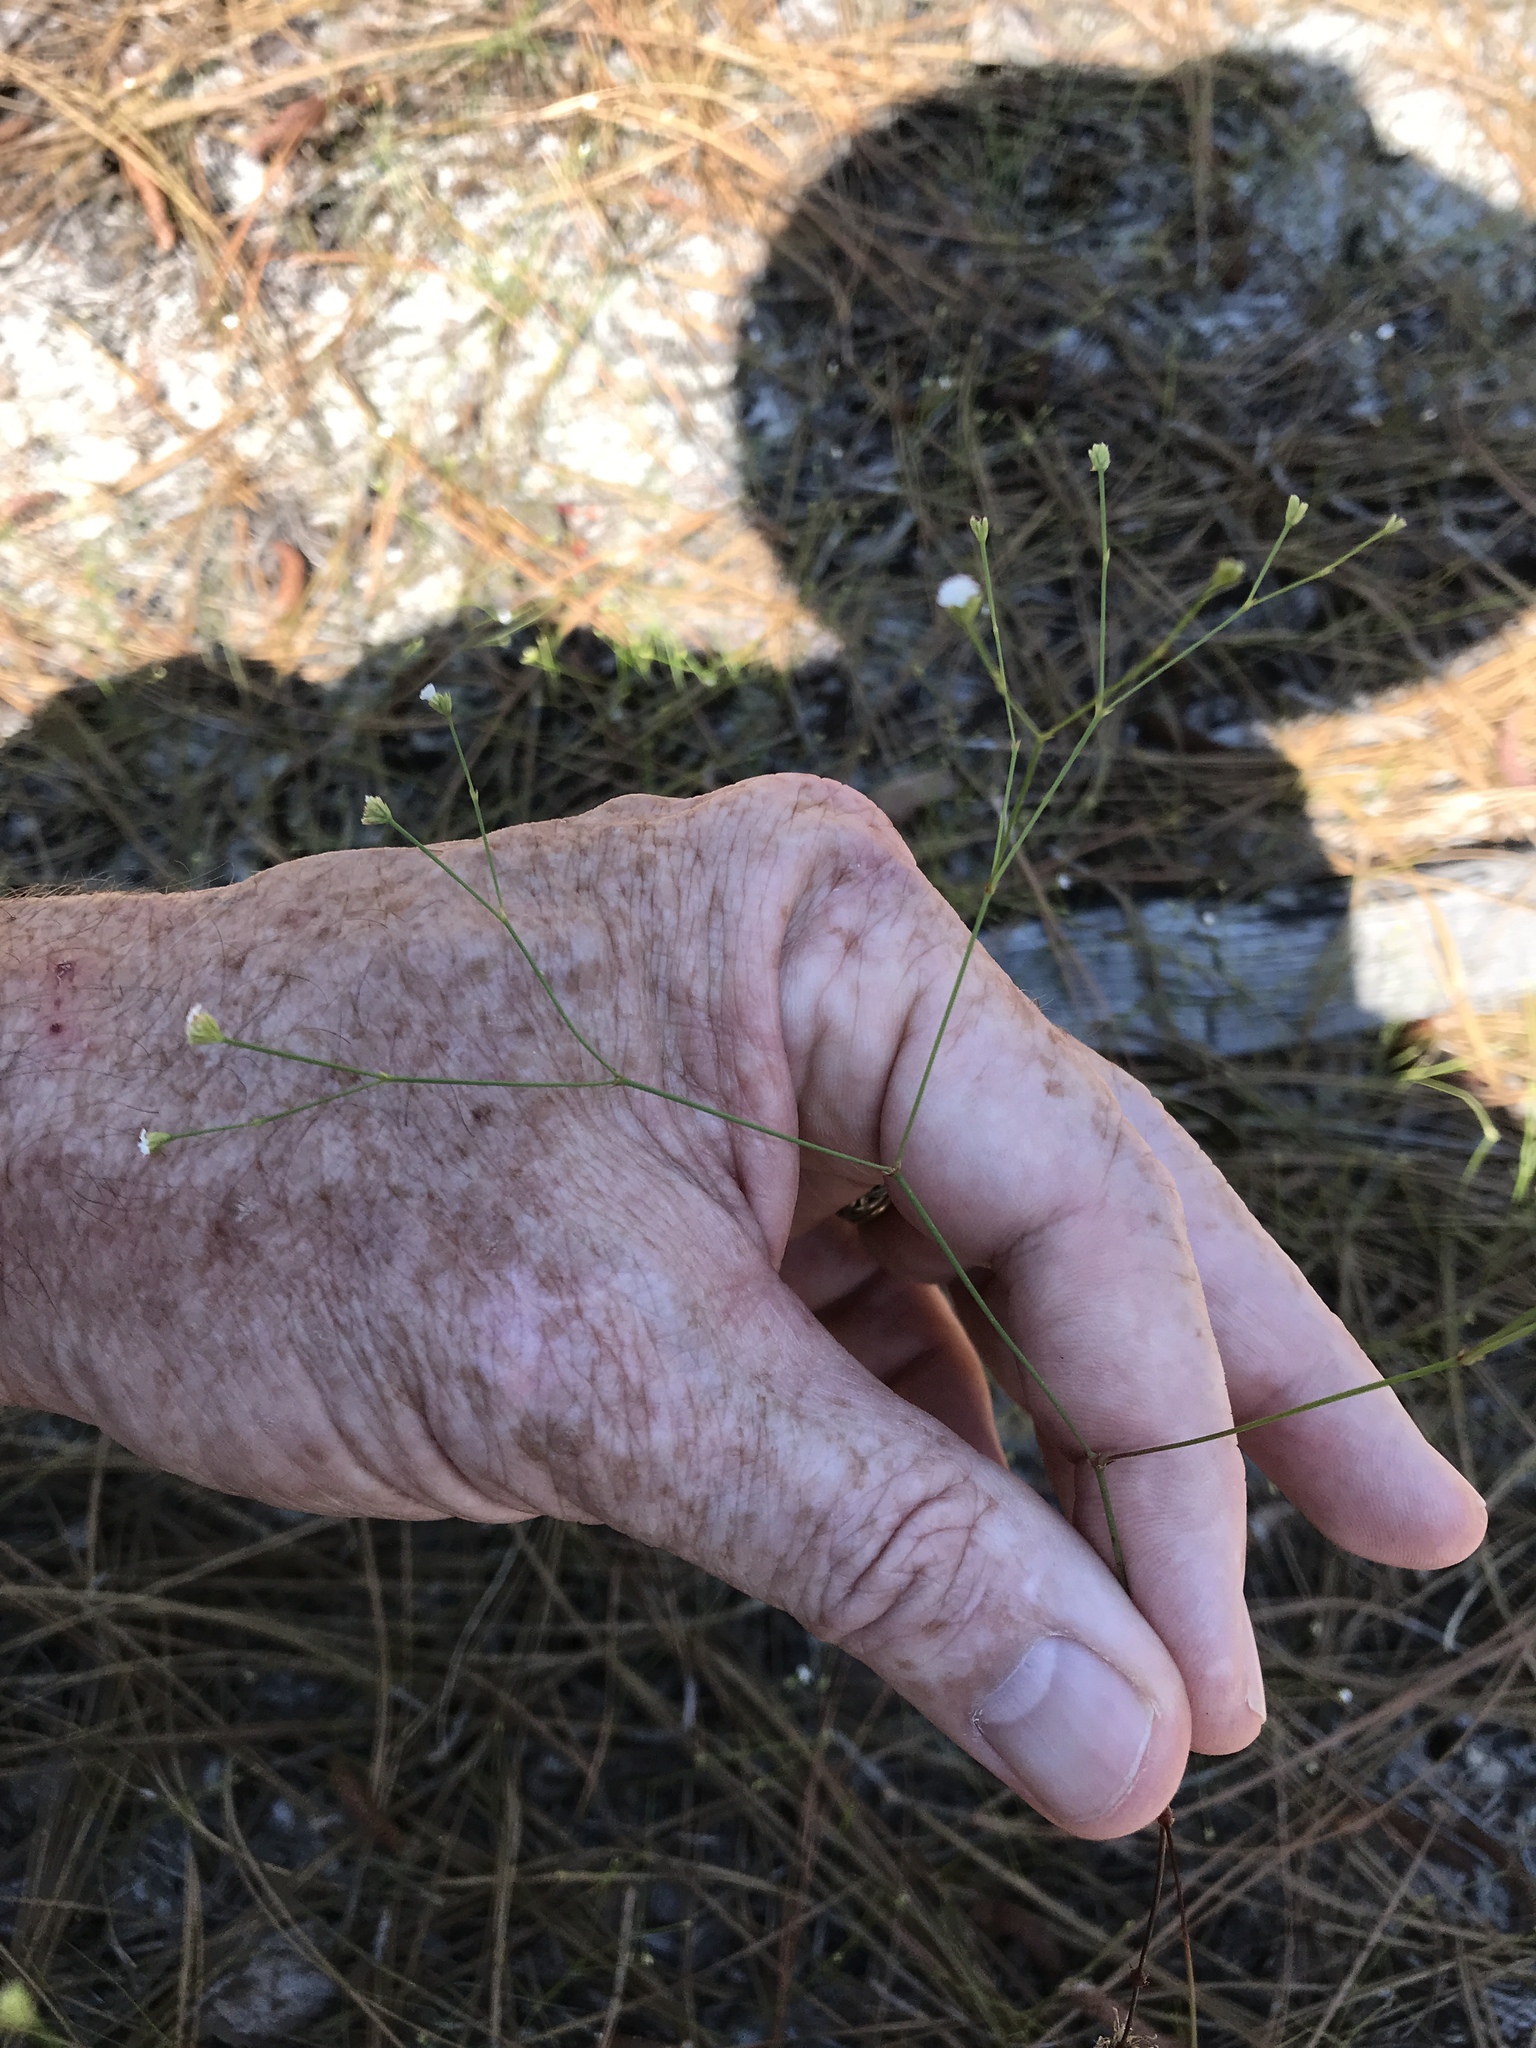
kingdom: Plantae
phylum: Tracheophyta
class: Magnoliopsida
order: Caryophyllales
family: Caryophyllaceae
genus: Stipulicida
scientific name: Stipulicida setacea
